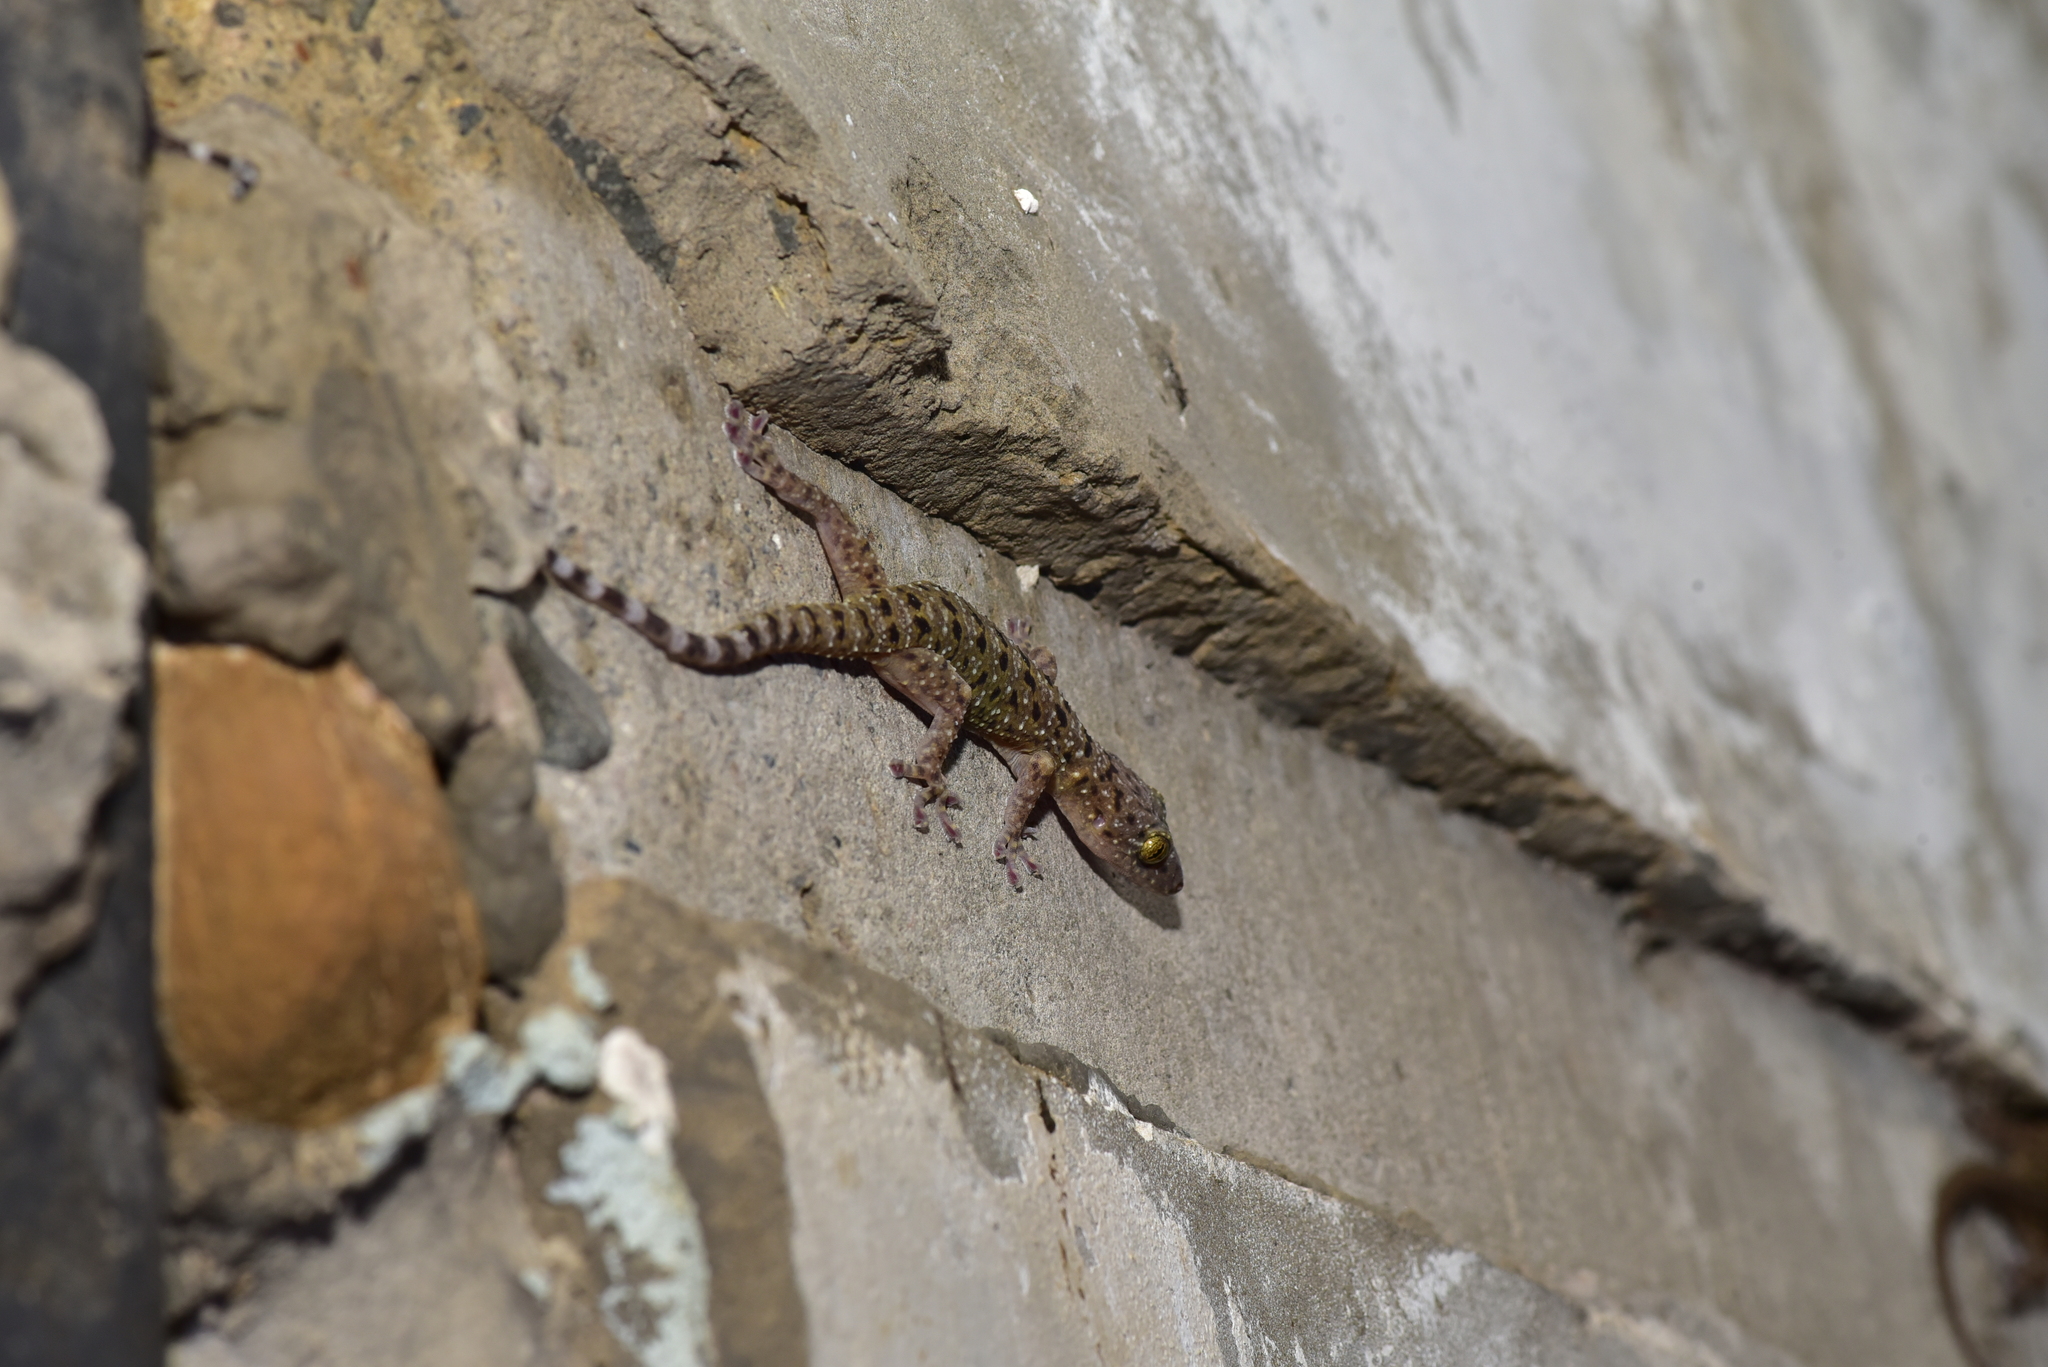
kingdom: Animalia
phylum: Chordata
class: Squamata
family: Gekkonidae
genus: Gekko
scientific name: Gekko monarchus
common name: Spotted house gecko
